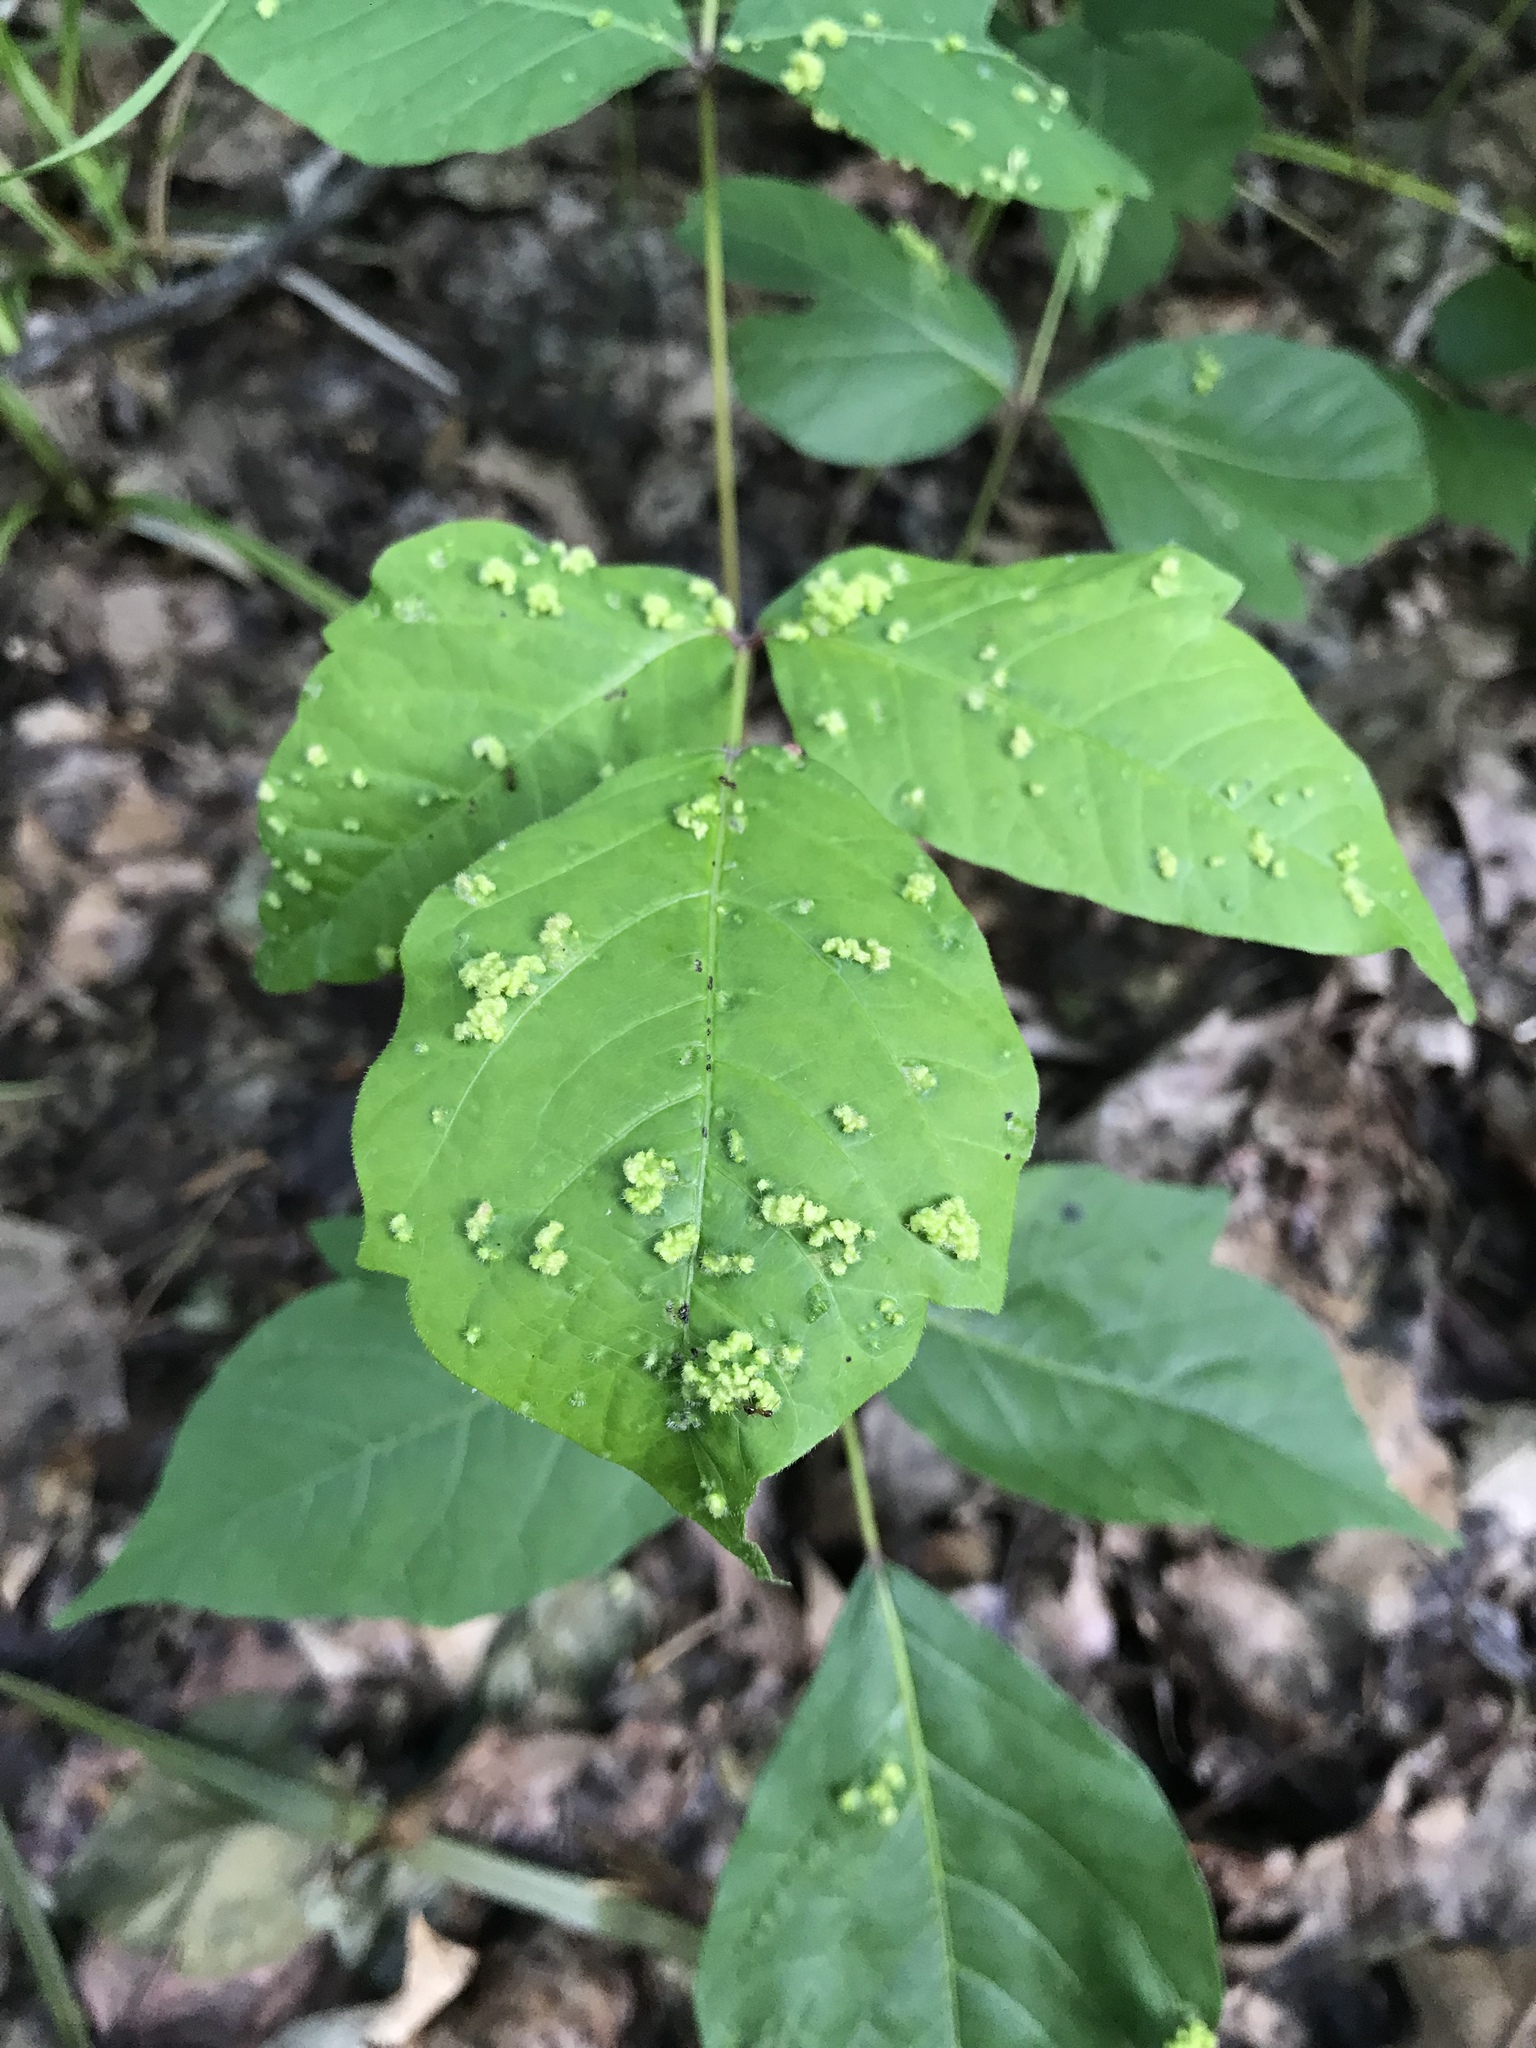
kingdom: Plantae
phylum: Tracheophyta
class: Magnoliopsida
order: Sapindales
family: Anacardiaceae
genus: Toxicodendron
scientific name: Toxicodendron radicans
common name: Poison ivy
